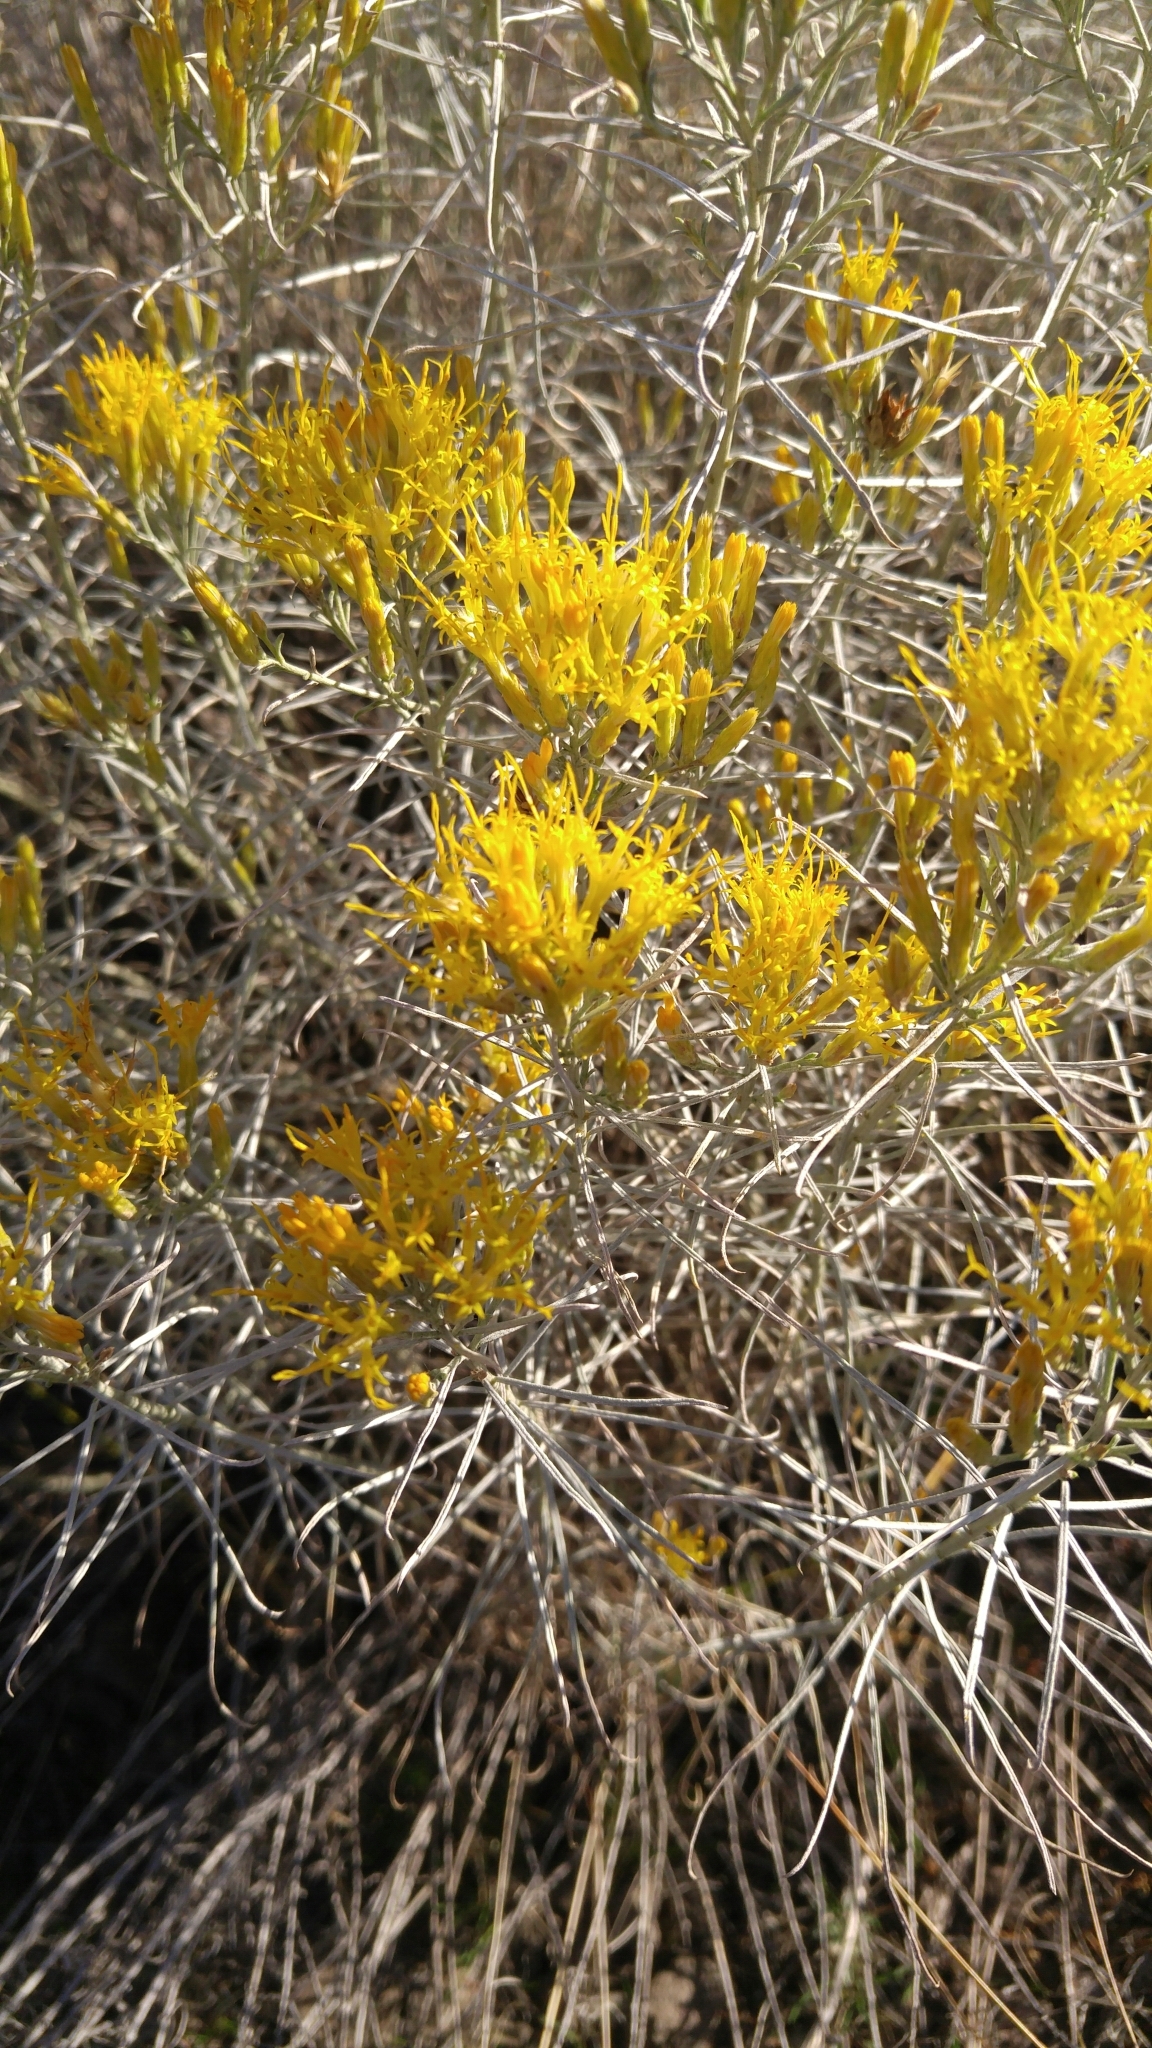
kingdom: Plantae
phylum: Tracheophyta
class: Magnoliopsida
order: Asterales
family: Asteraceae
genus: Ericameria
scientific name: Ericameria nauseosa
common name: Rubber rabbitbrush
